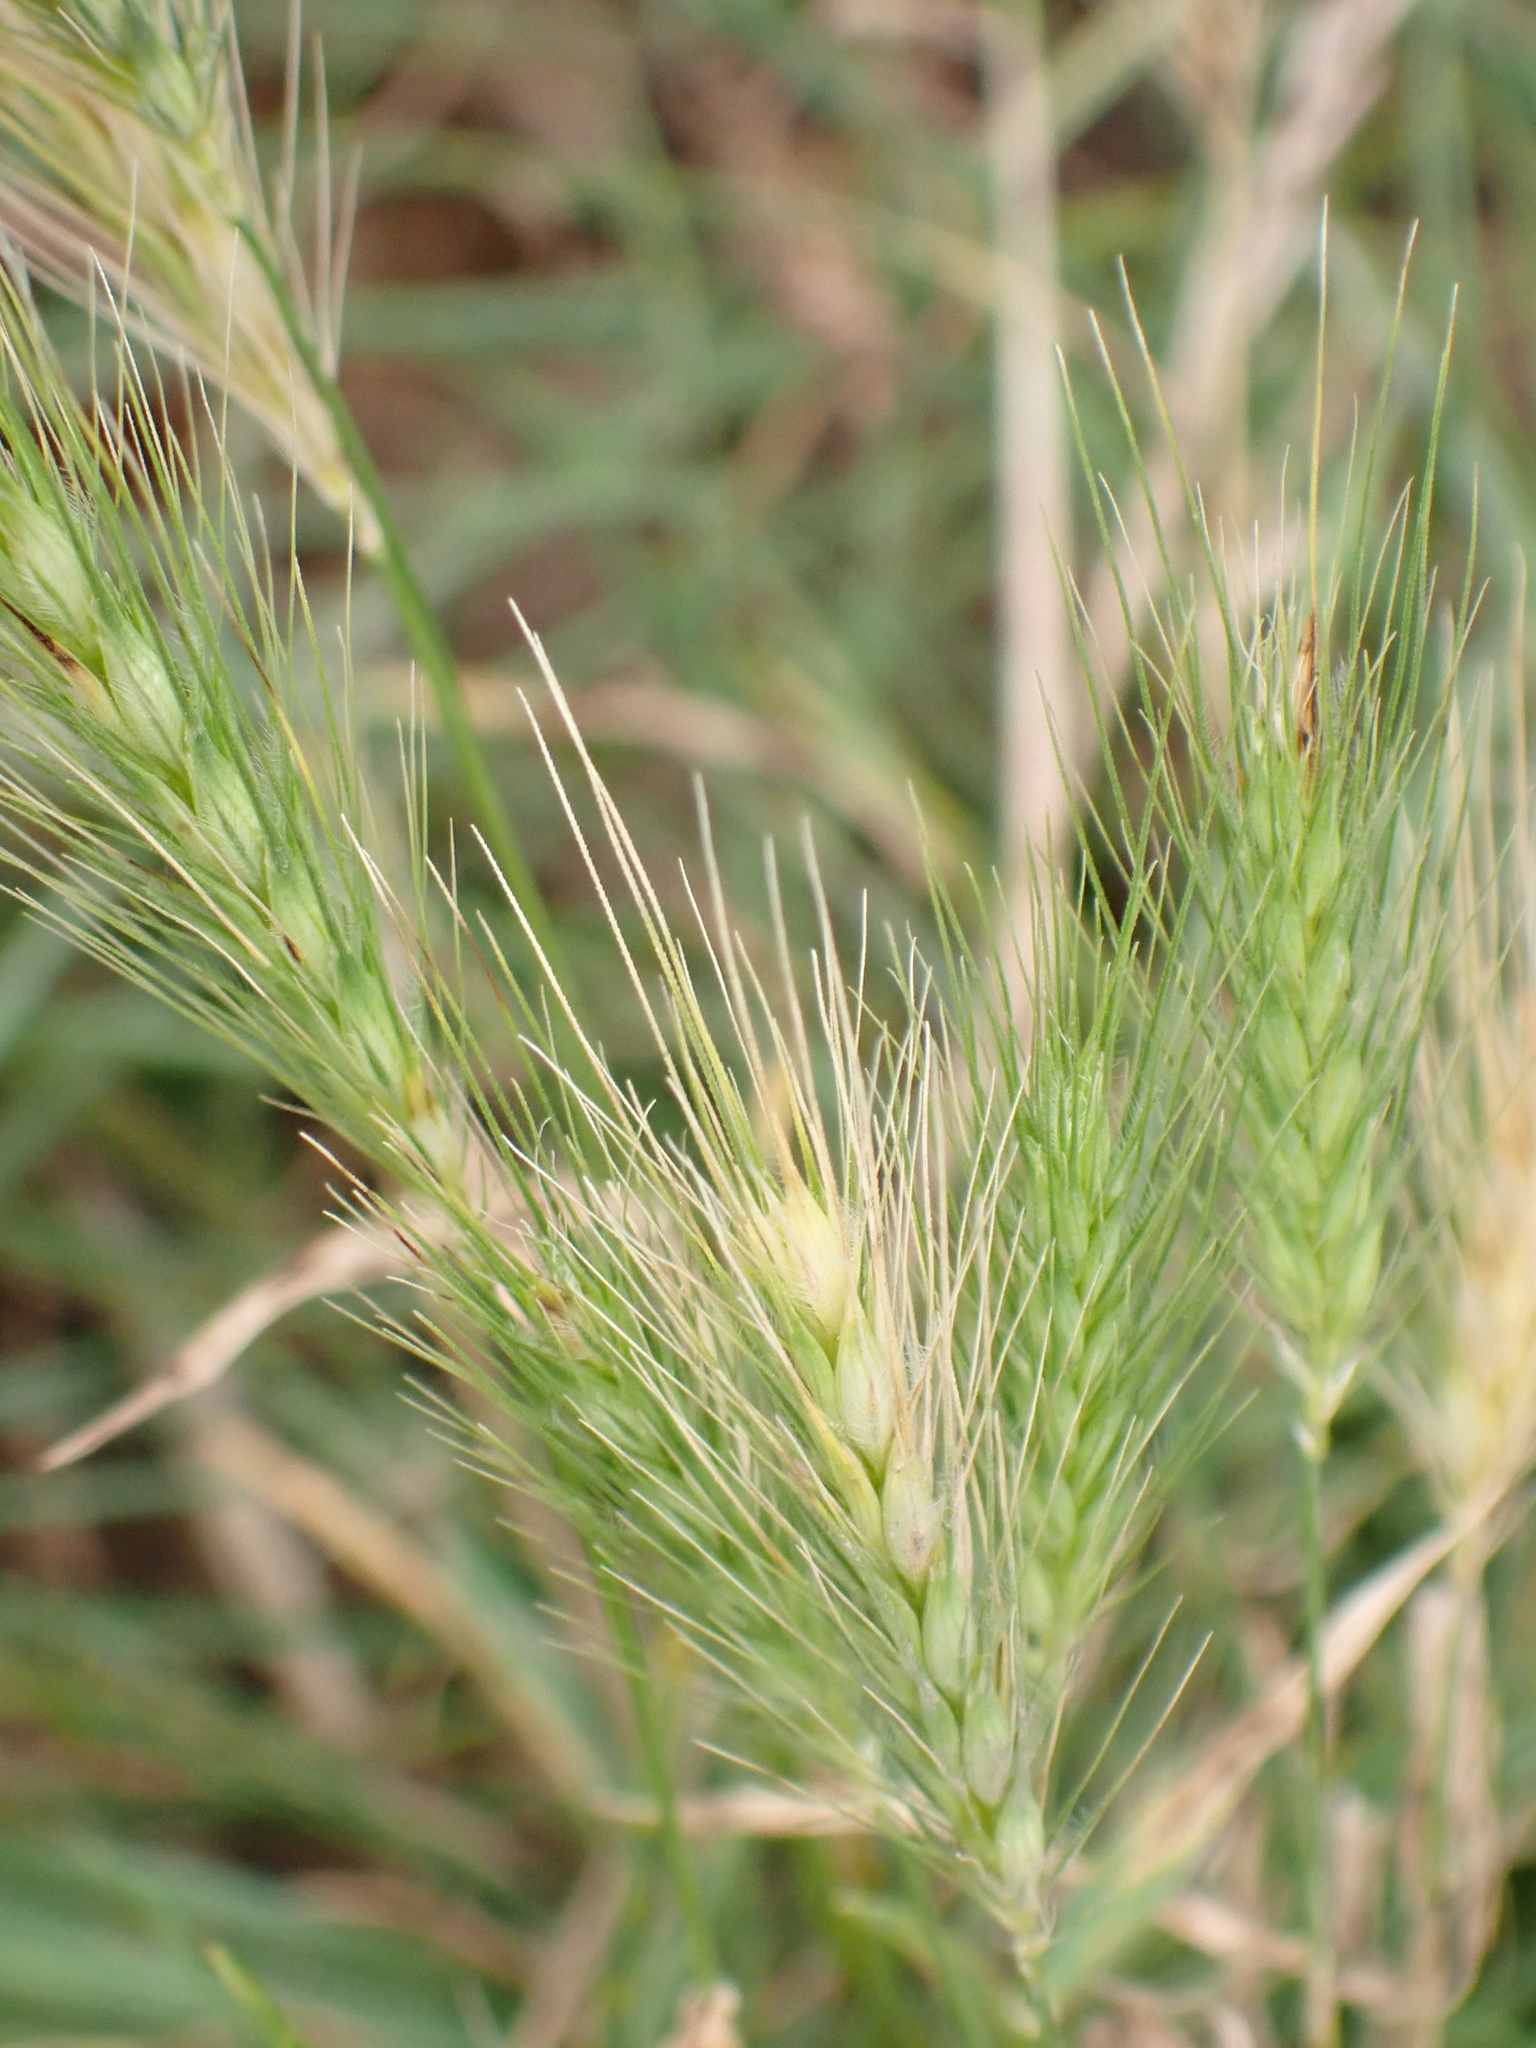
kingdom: Plantae
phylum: Tracheophyta
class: Liliopsida
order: Poales
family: Poaceae
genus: Hordeum
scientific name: Hordeum murinum
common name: Wall barley
